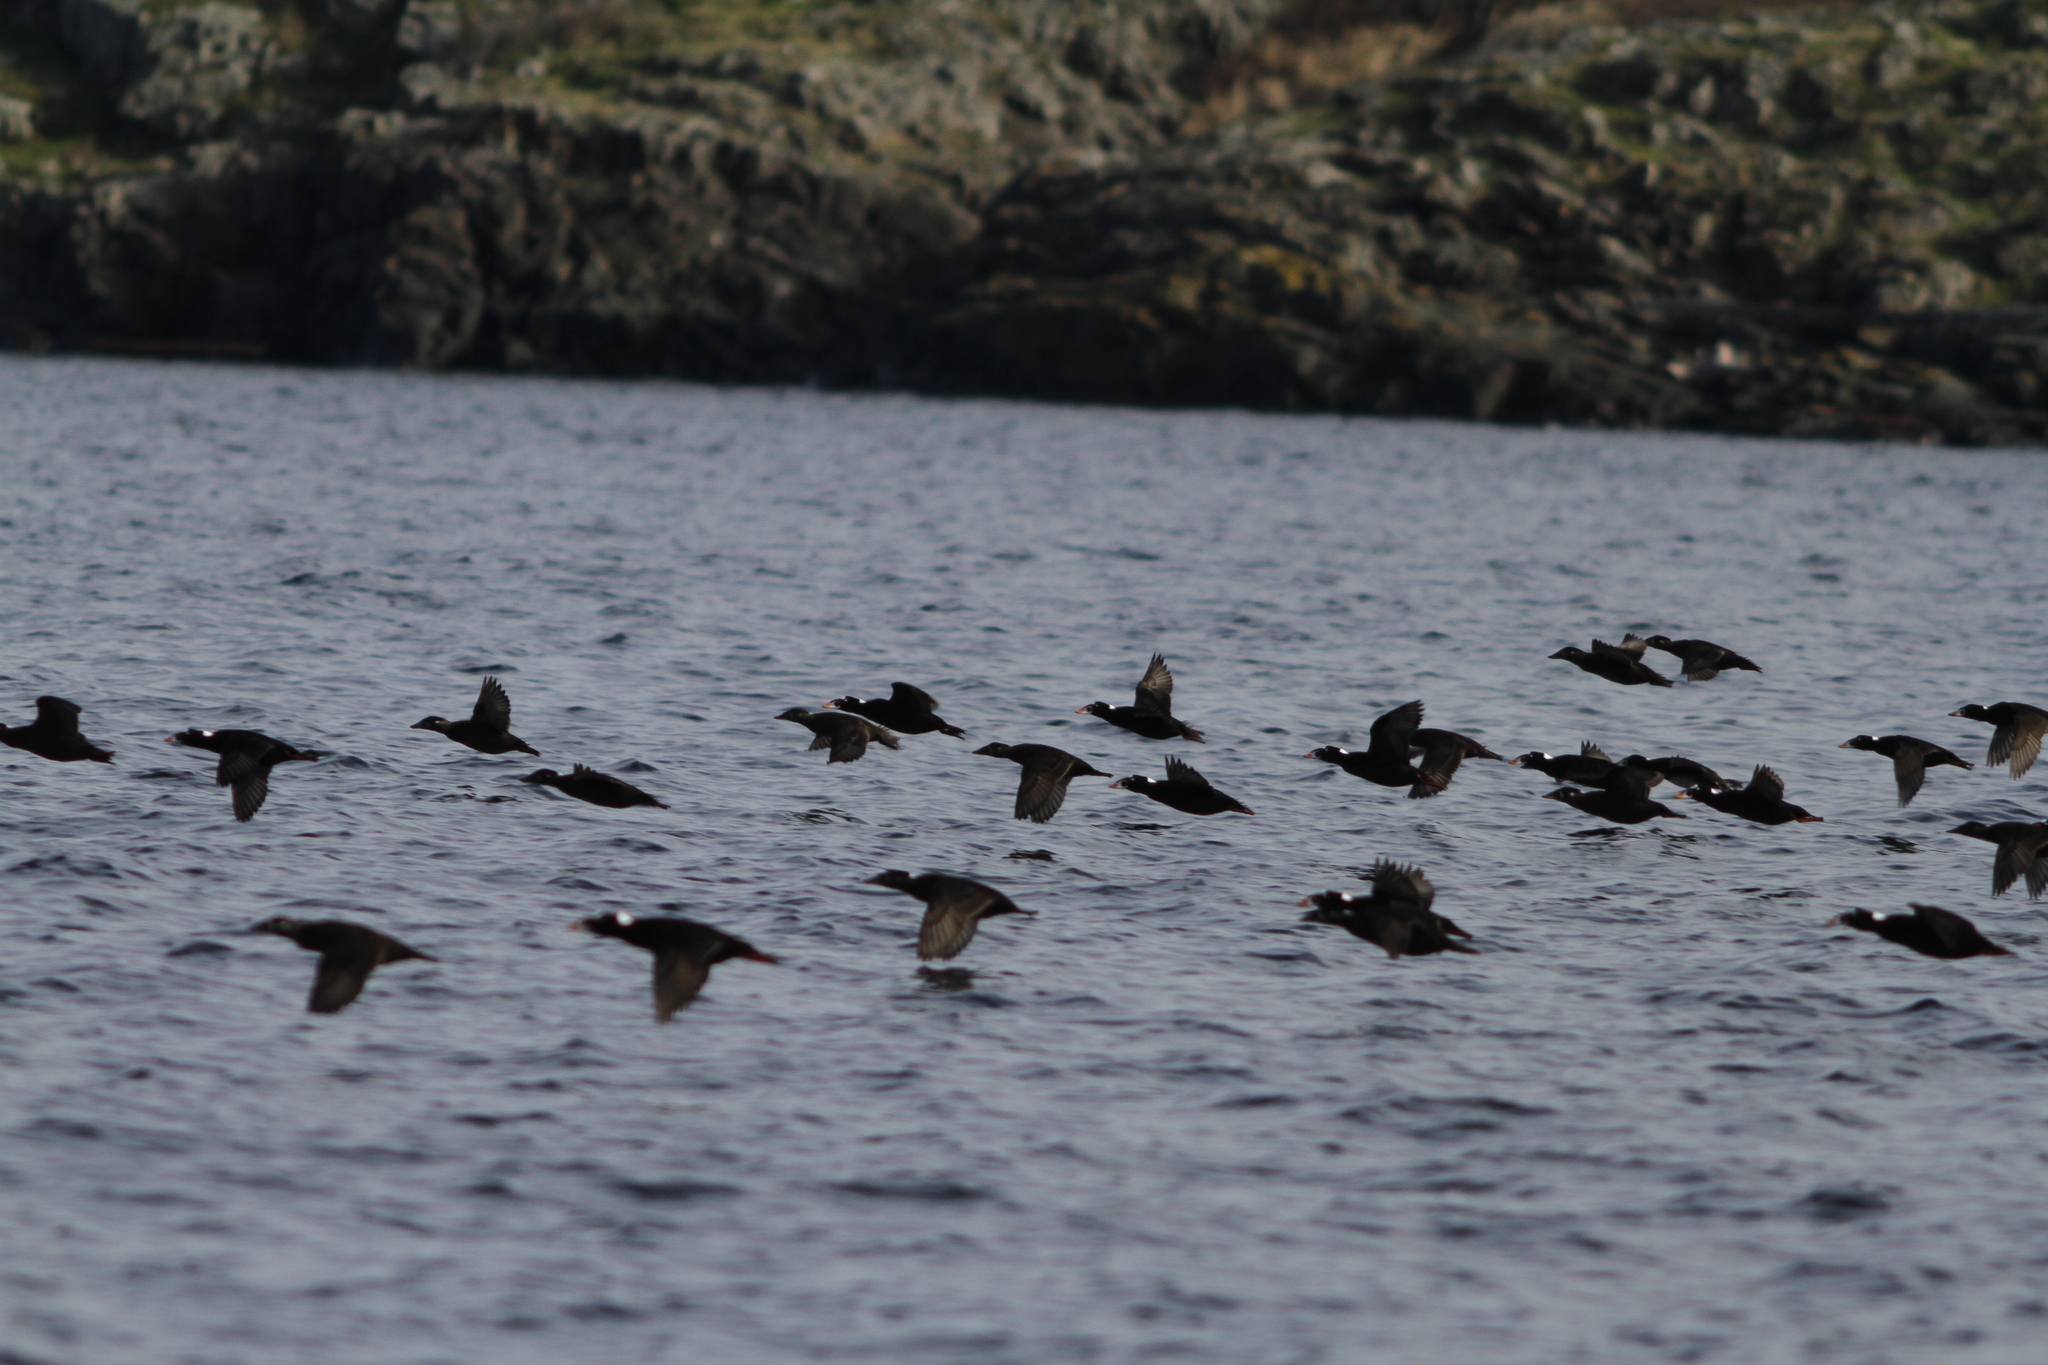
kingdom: Animalia
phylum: Chordata
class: Aves
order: Anseriformes
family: Anatidae
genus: Melanitta
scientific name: Melanitta perspicillata
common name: Surf scoter
